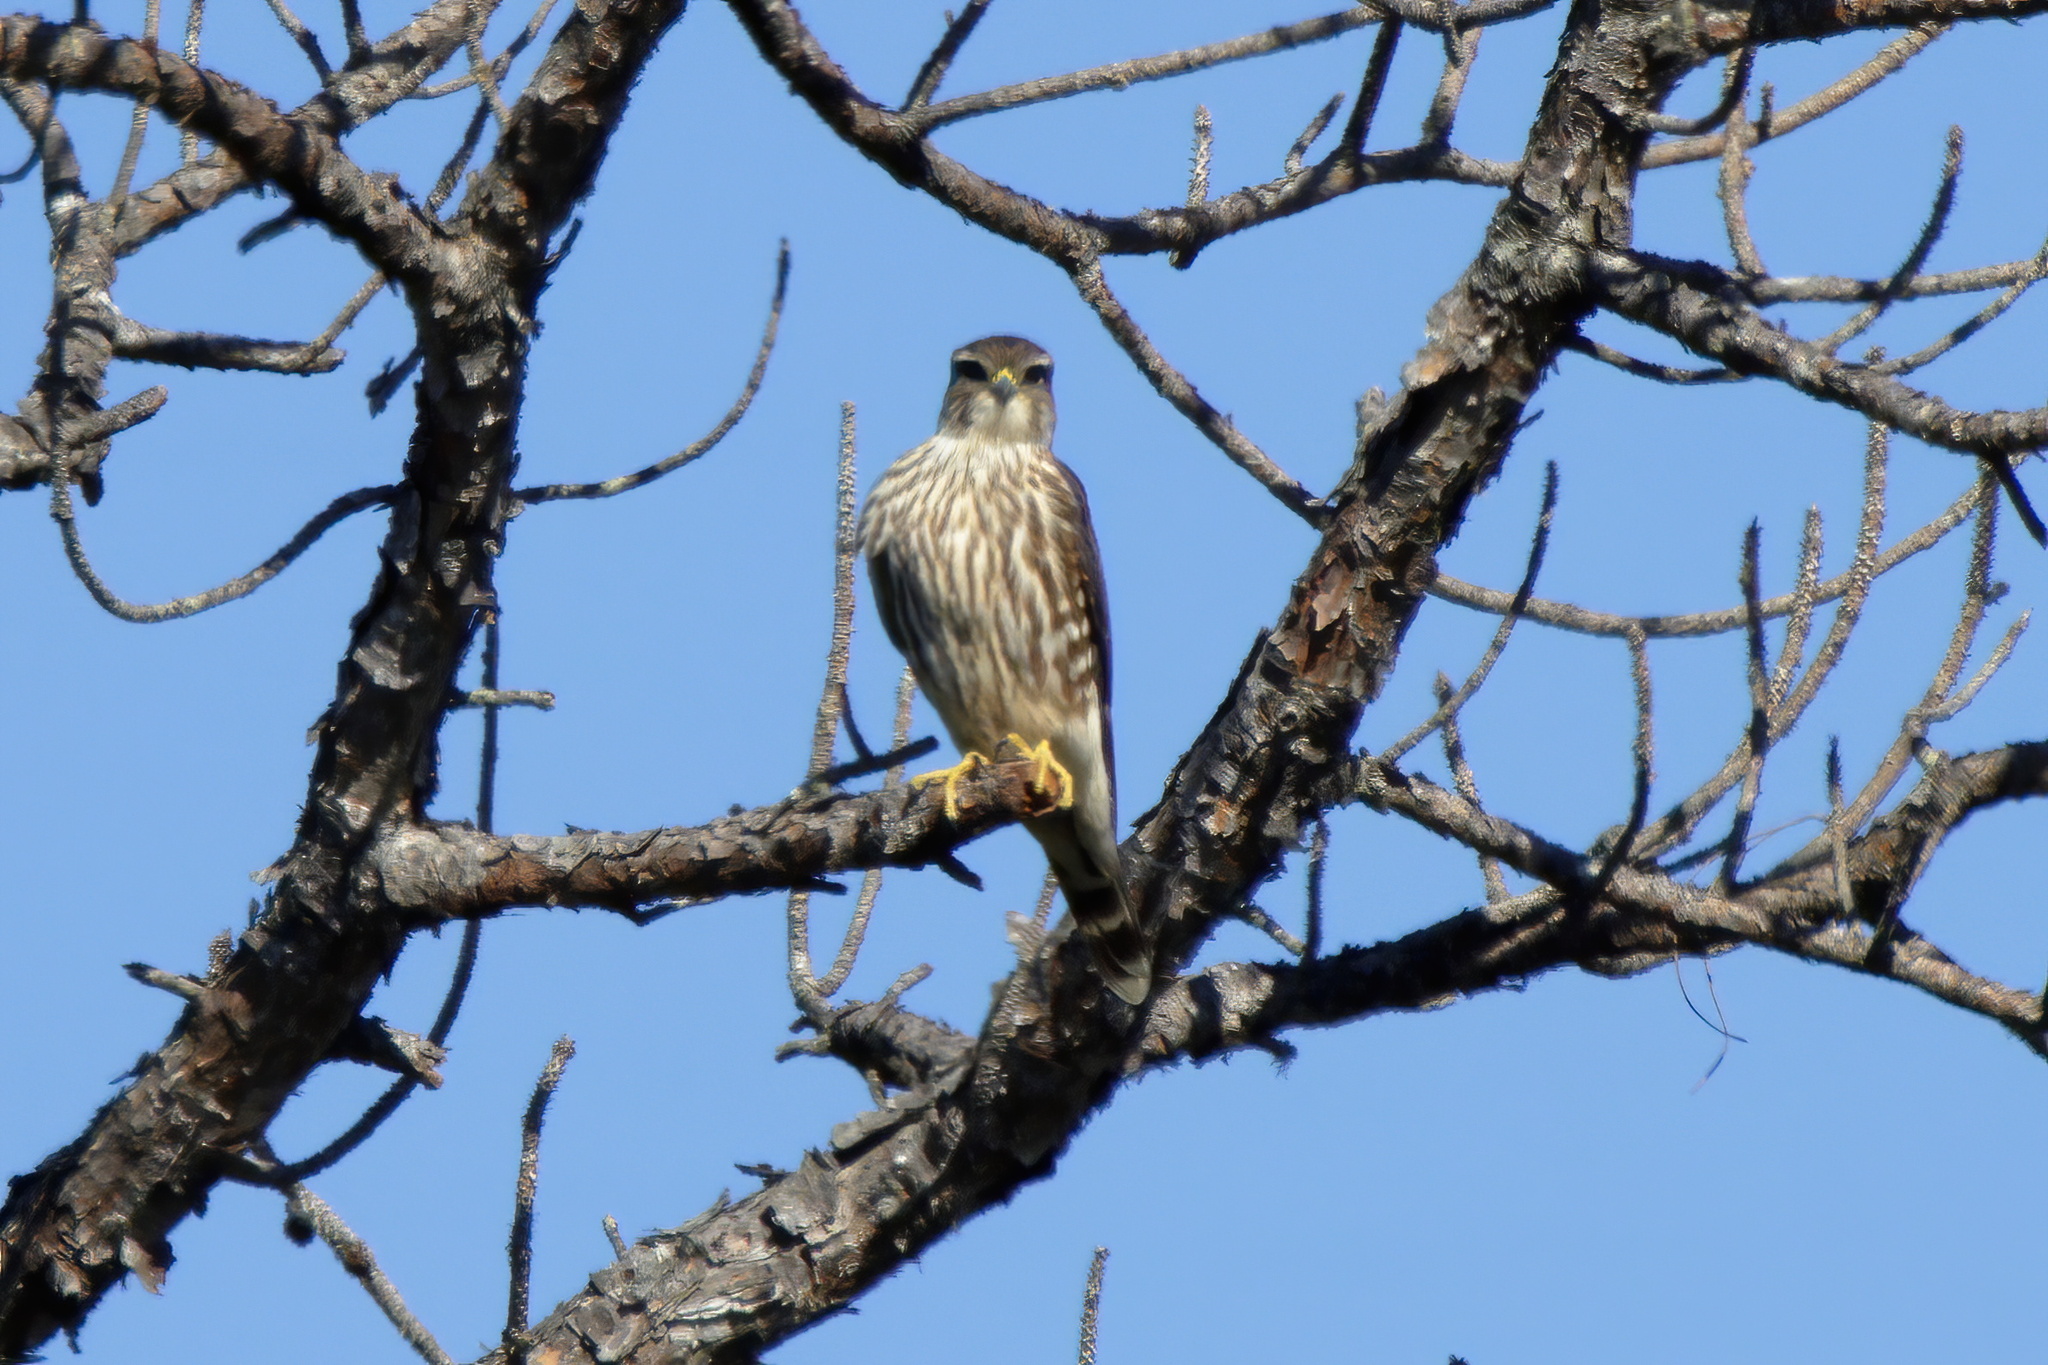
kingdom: Animalia
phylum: Chordata
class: Aves
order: Falconiformes
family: Falconidae
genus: Falco
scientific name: Falco columbarius
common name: Merlin
